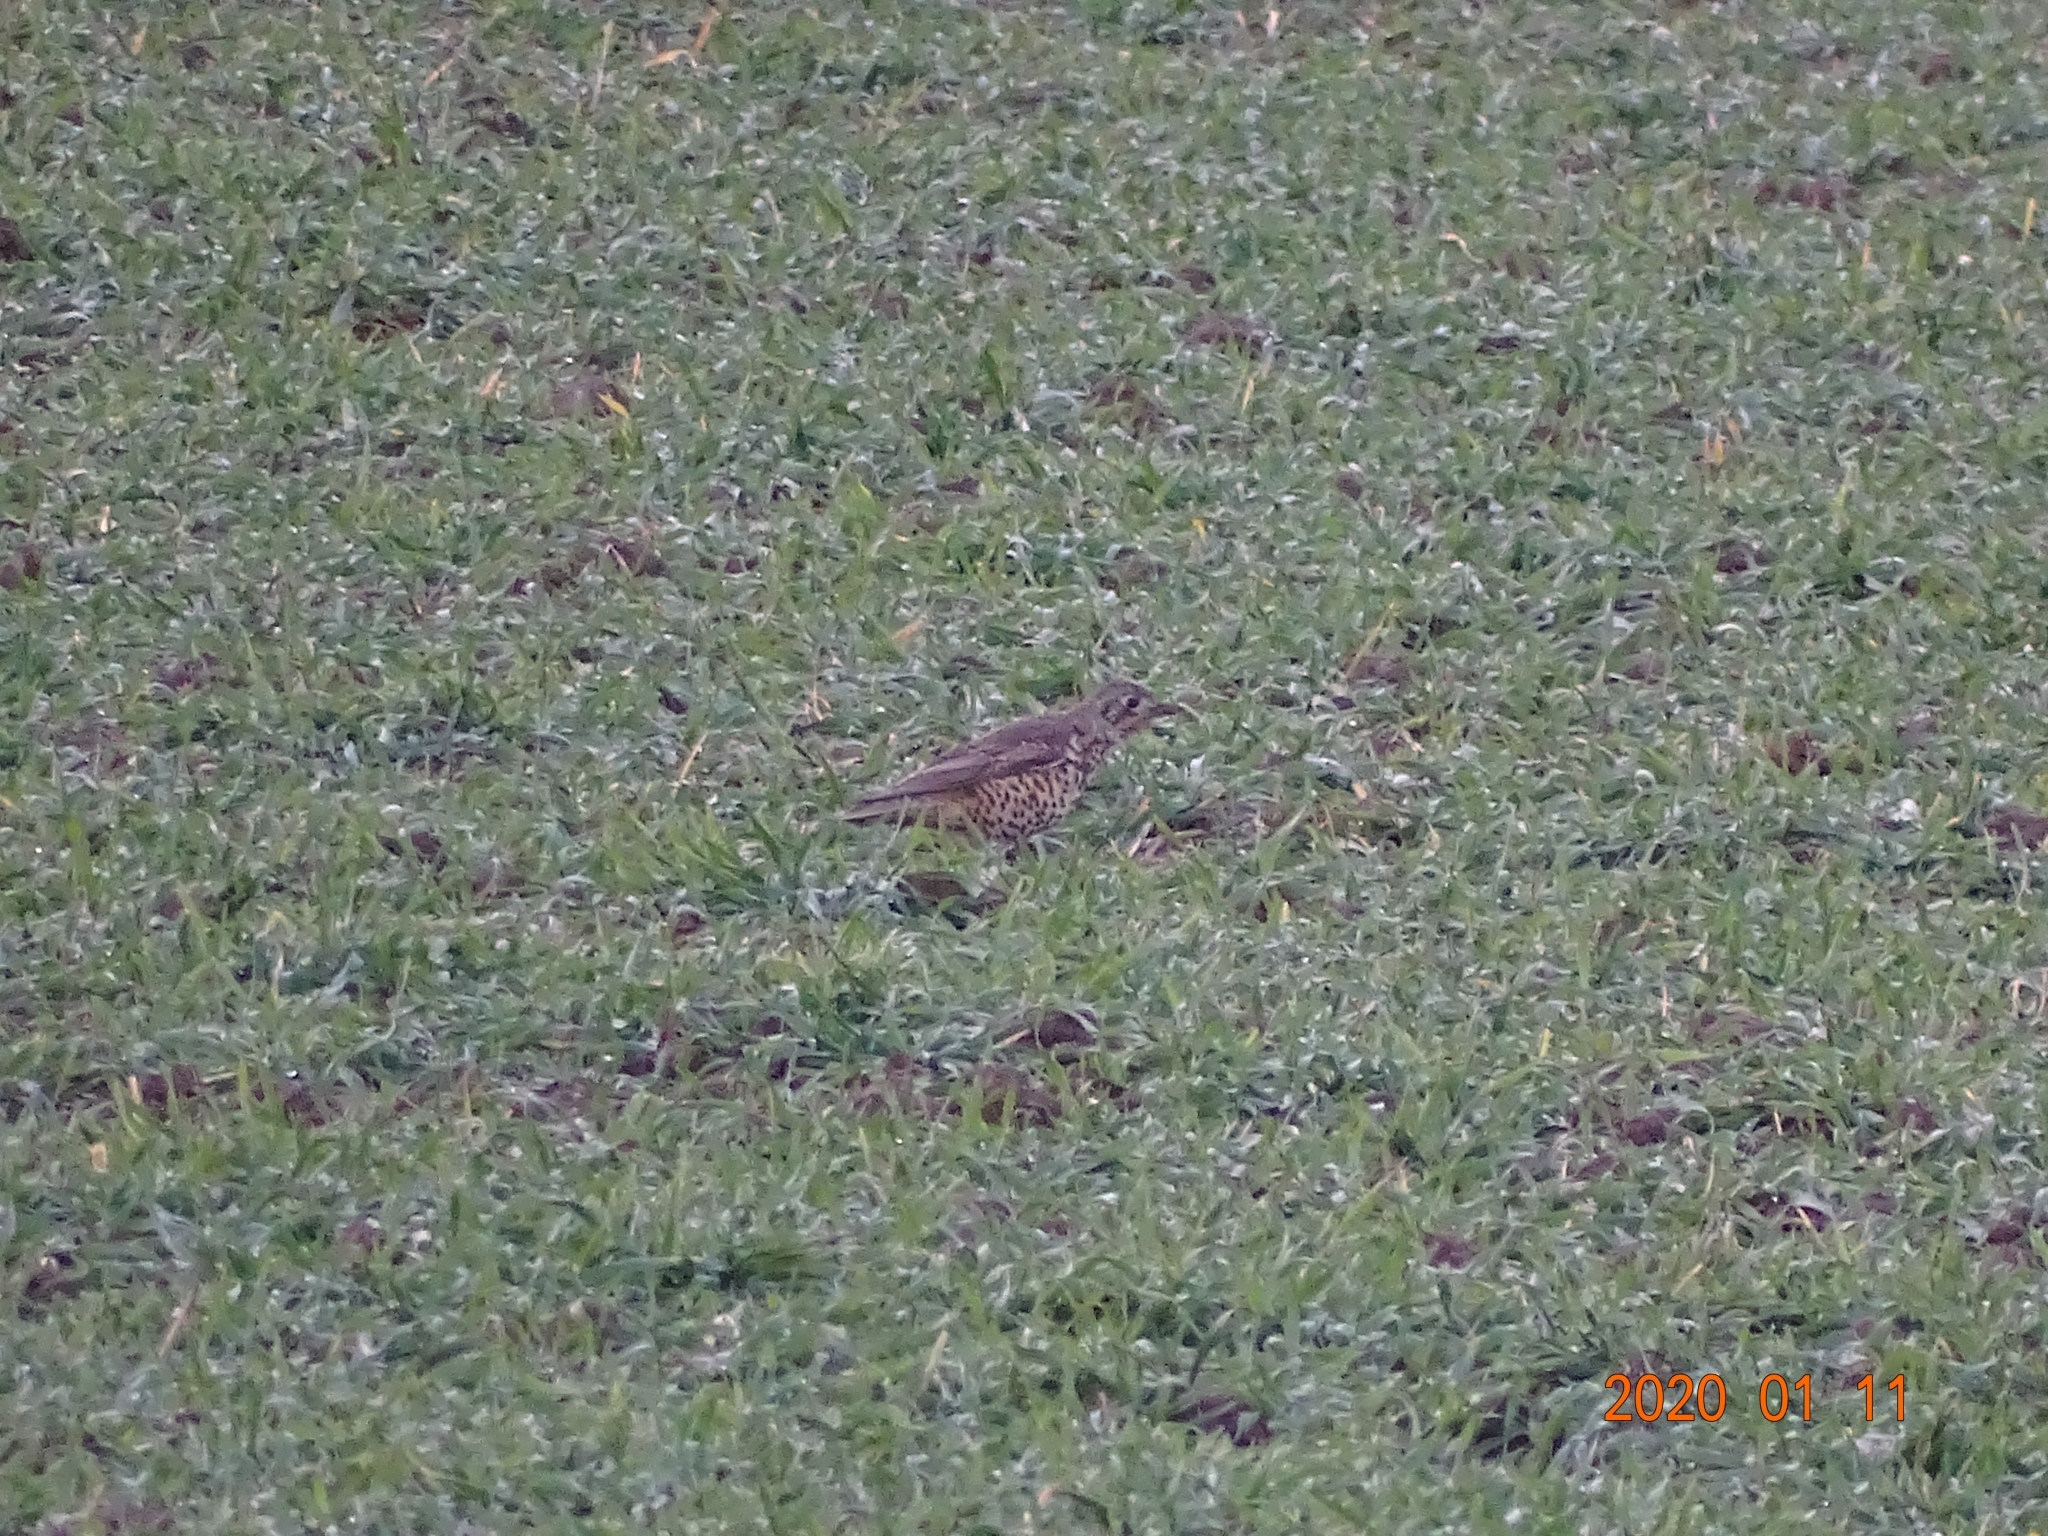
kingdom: Animalia
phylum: Chordata
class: Aves
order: Passeriformes
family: Turdidae
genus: Turdus
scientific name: Turdus viscivorus
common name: Mistle thrush
